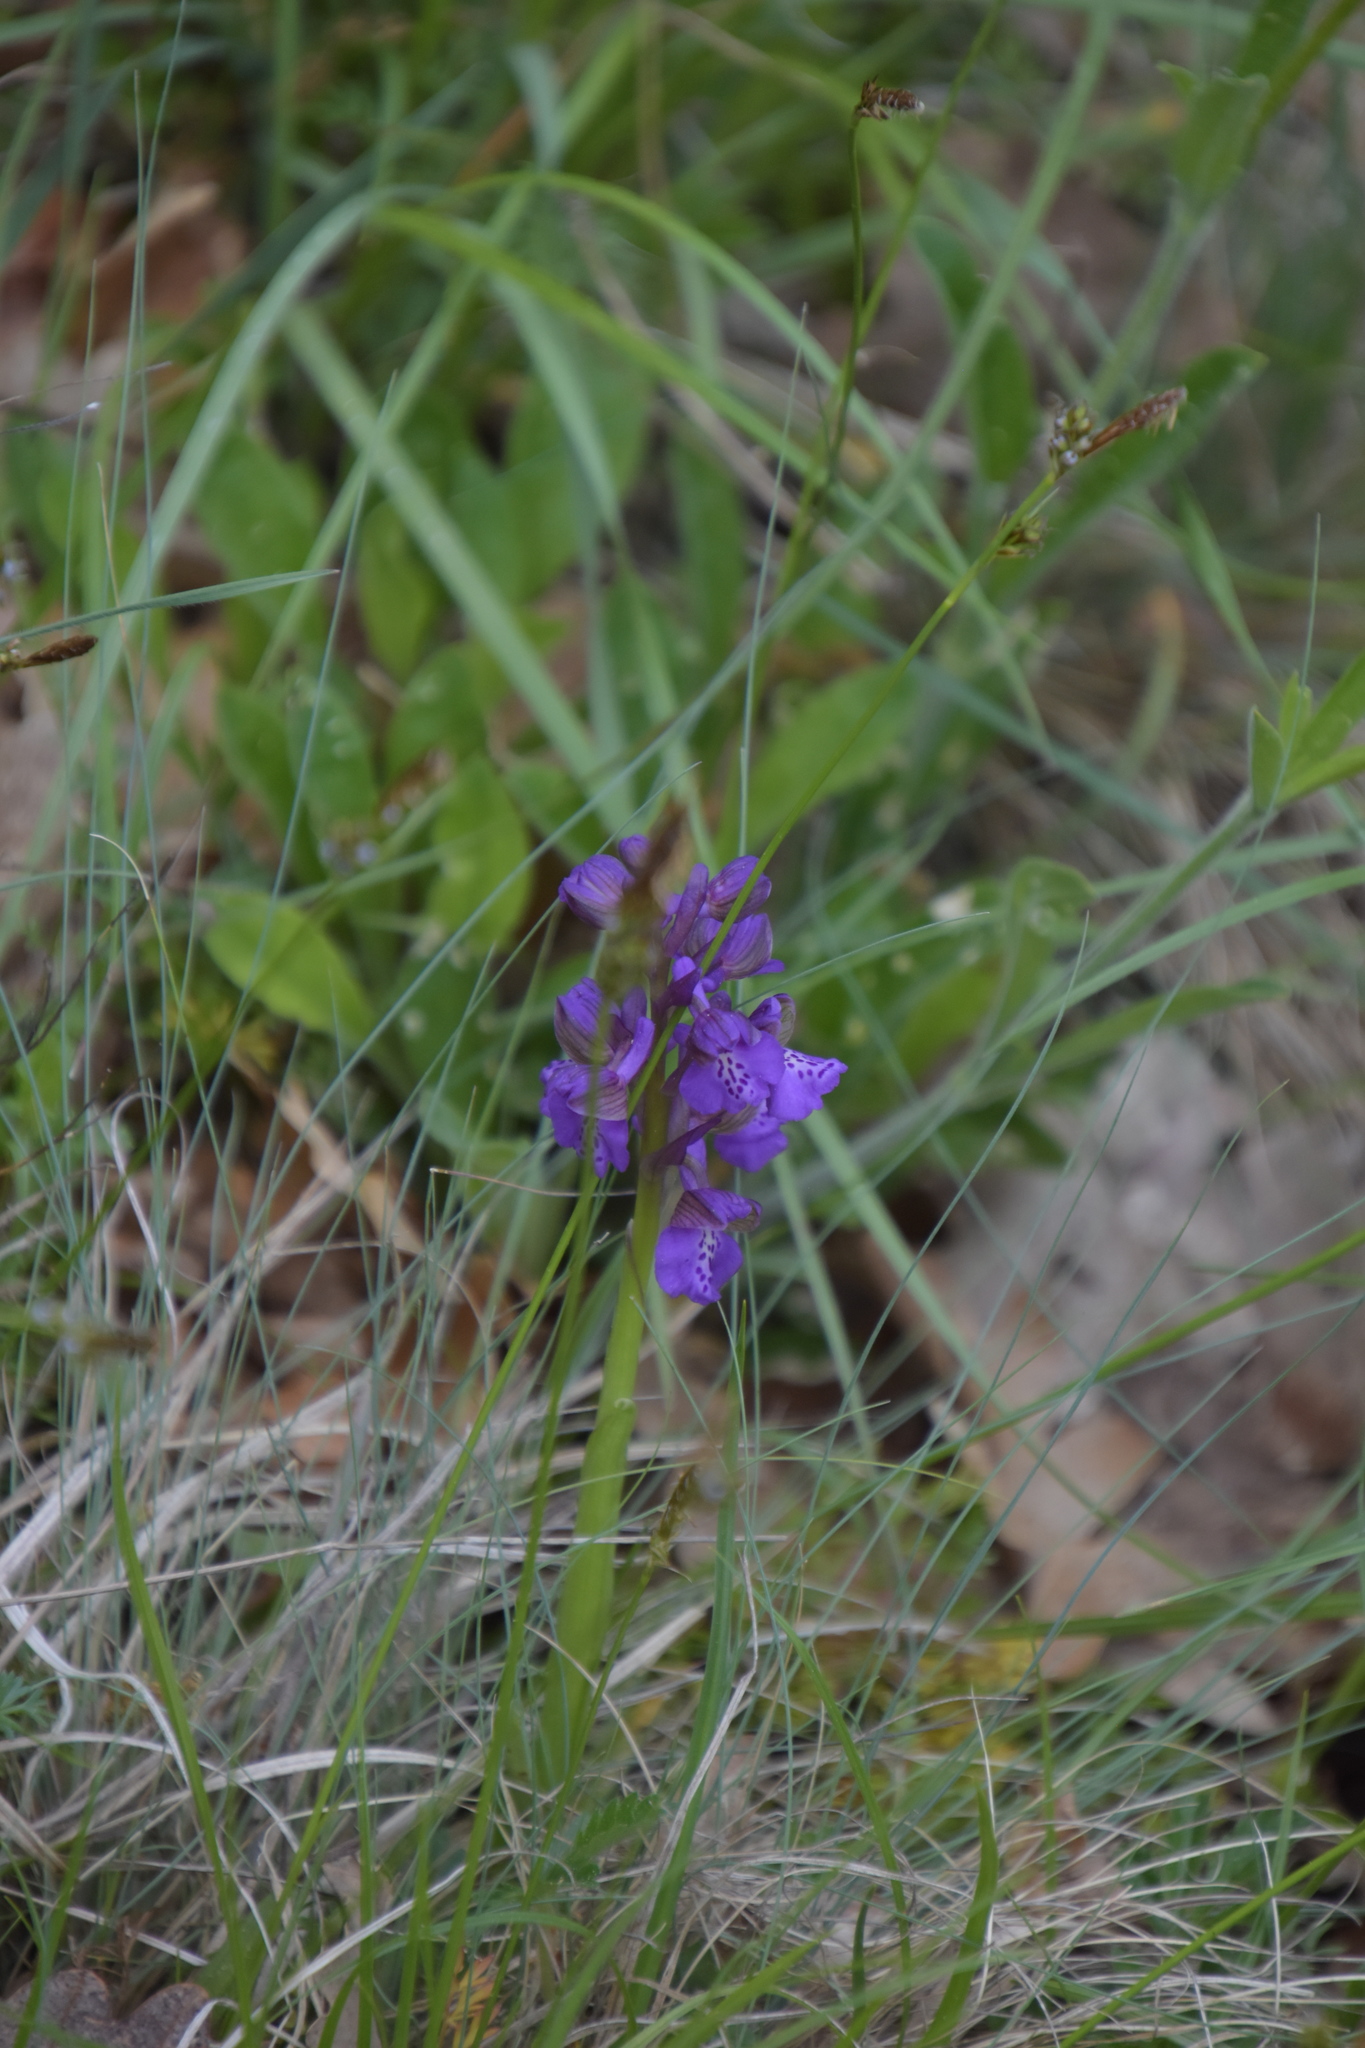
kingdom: Plantae
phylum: Tracheophyta
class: Liliopsida
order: Asparagales
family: Orchidaceae
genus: Anacamptis
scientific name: Anacamptis morio
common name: Green-winged orchid
